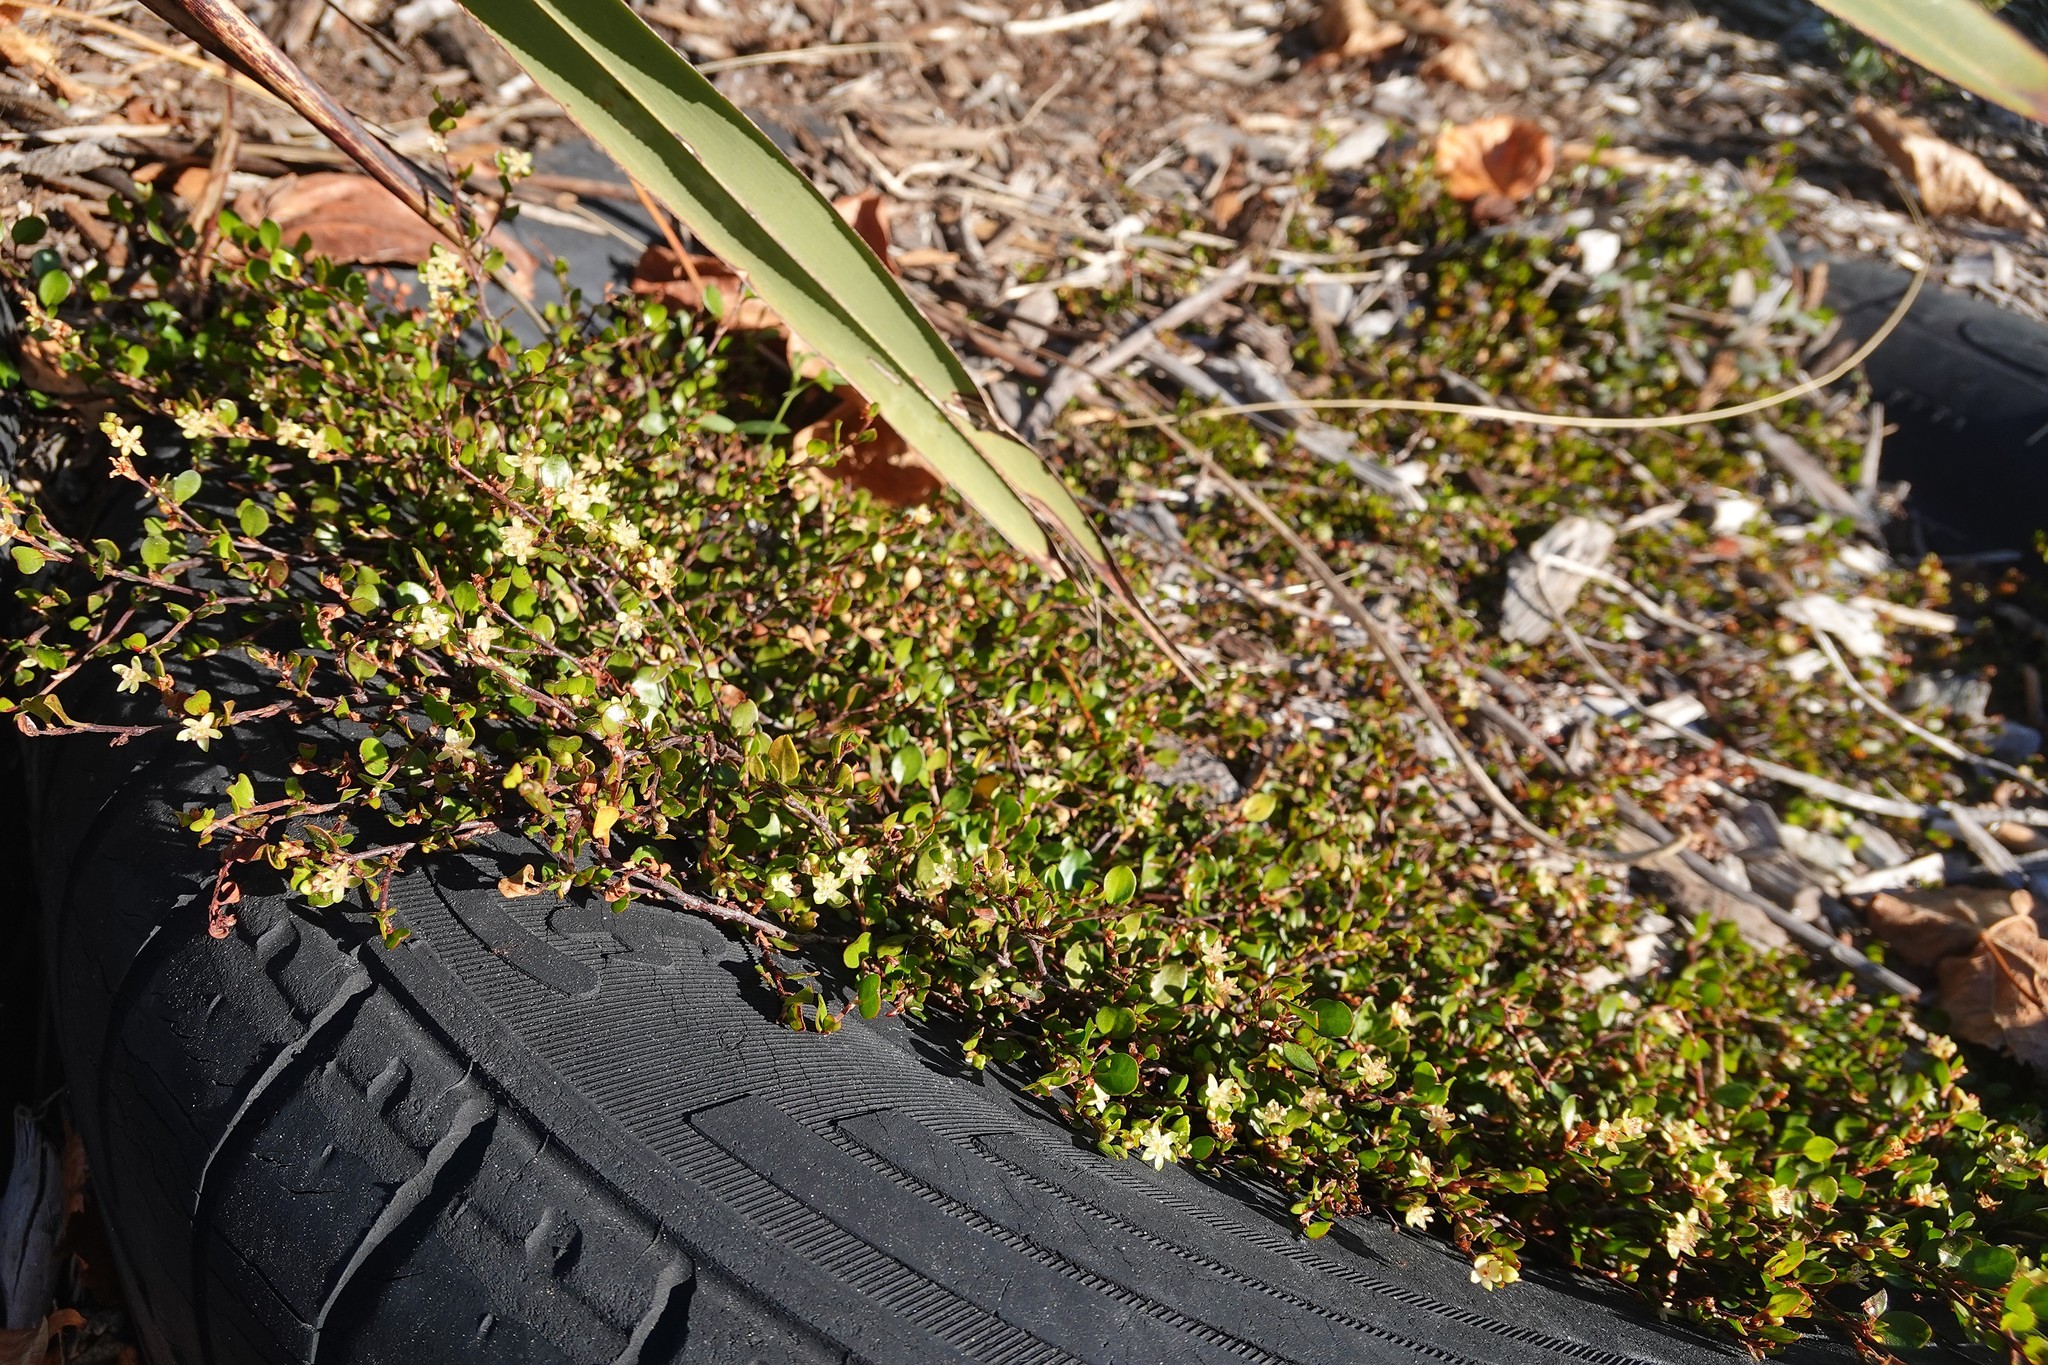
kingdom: Plantae
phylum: Tracheophyta
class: Magnoliopsida
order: Caryophyllales
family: Polygonaceae
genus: Muehlenbeckia
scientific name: Muehlenbeckia axillaris
